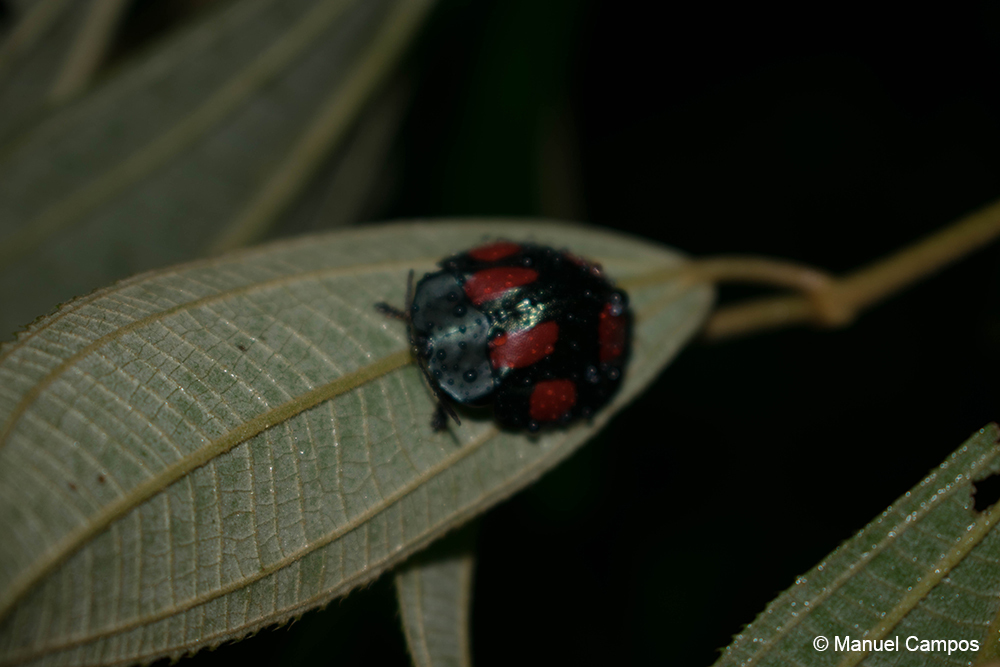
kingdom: Animalia
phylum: Arthropoda
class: Insecta
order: Coleoptera
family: Chrysomelidae
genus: Stolas
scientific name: Stolas illustris
